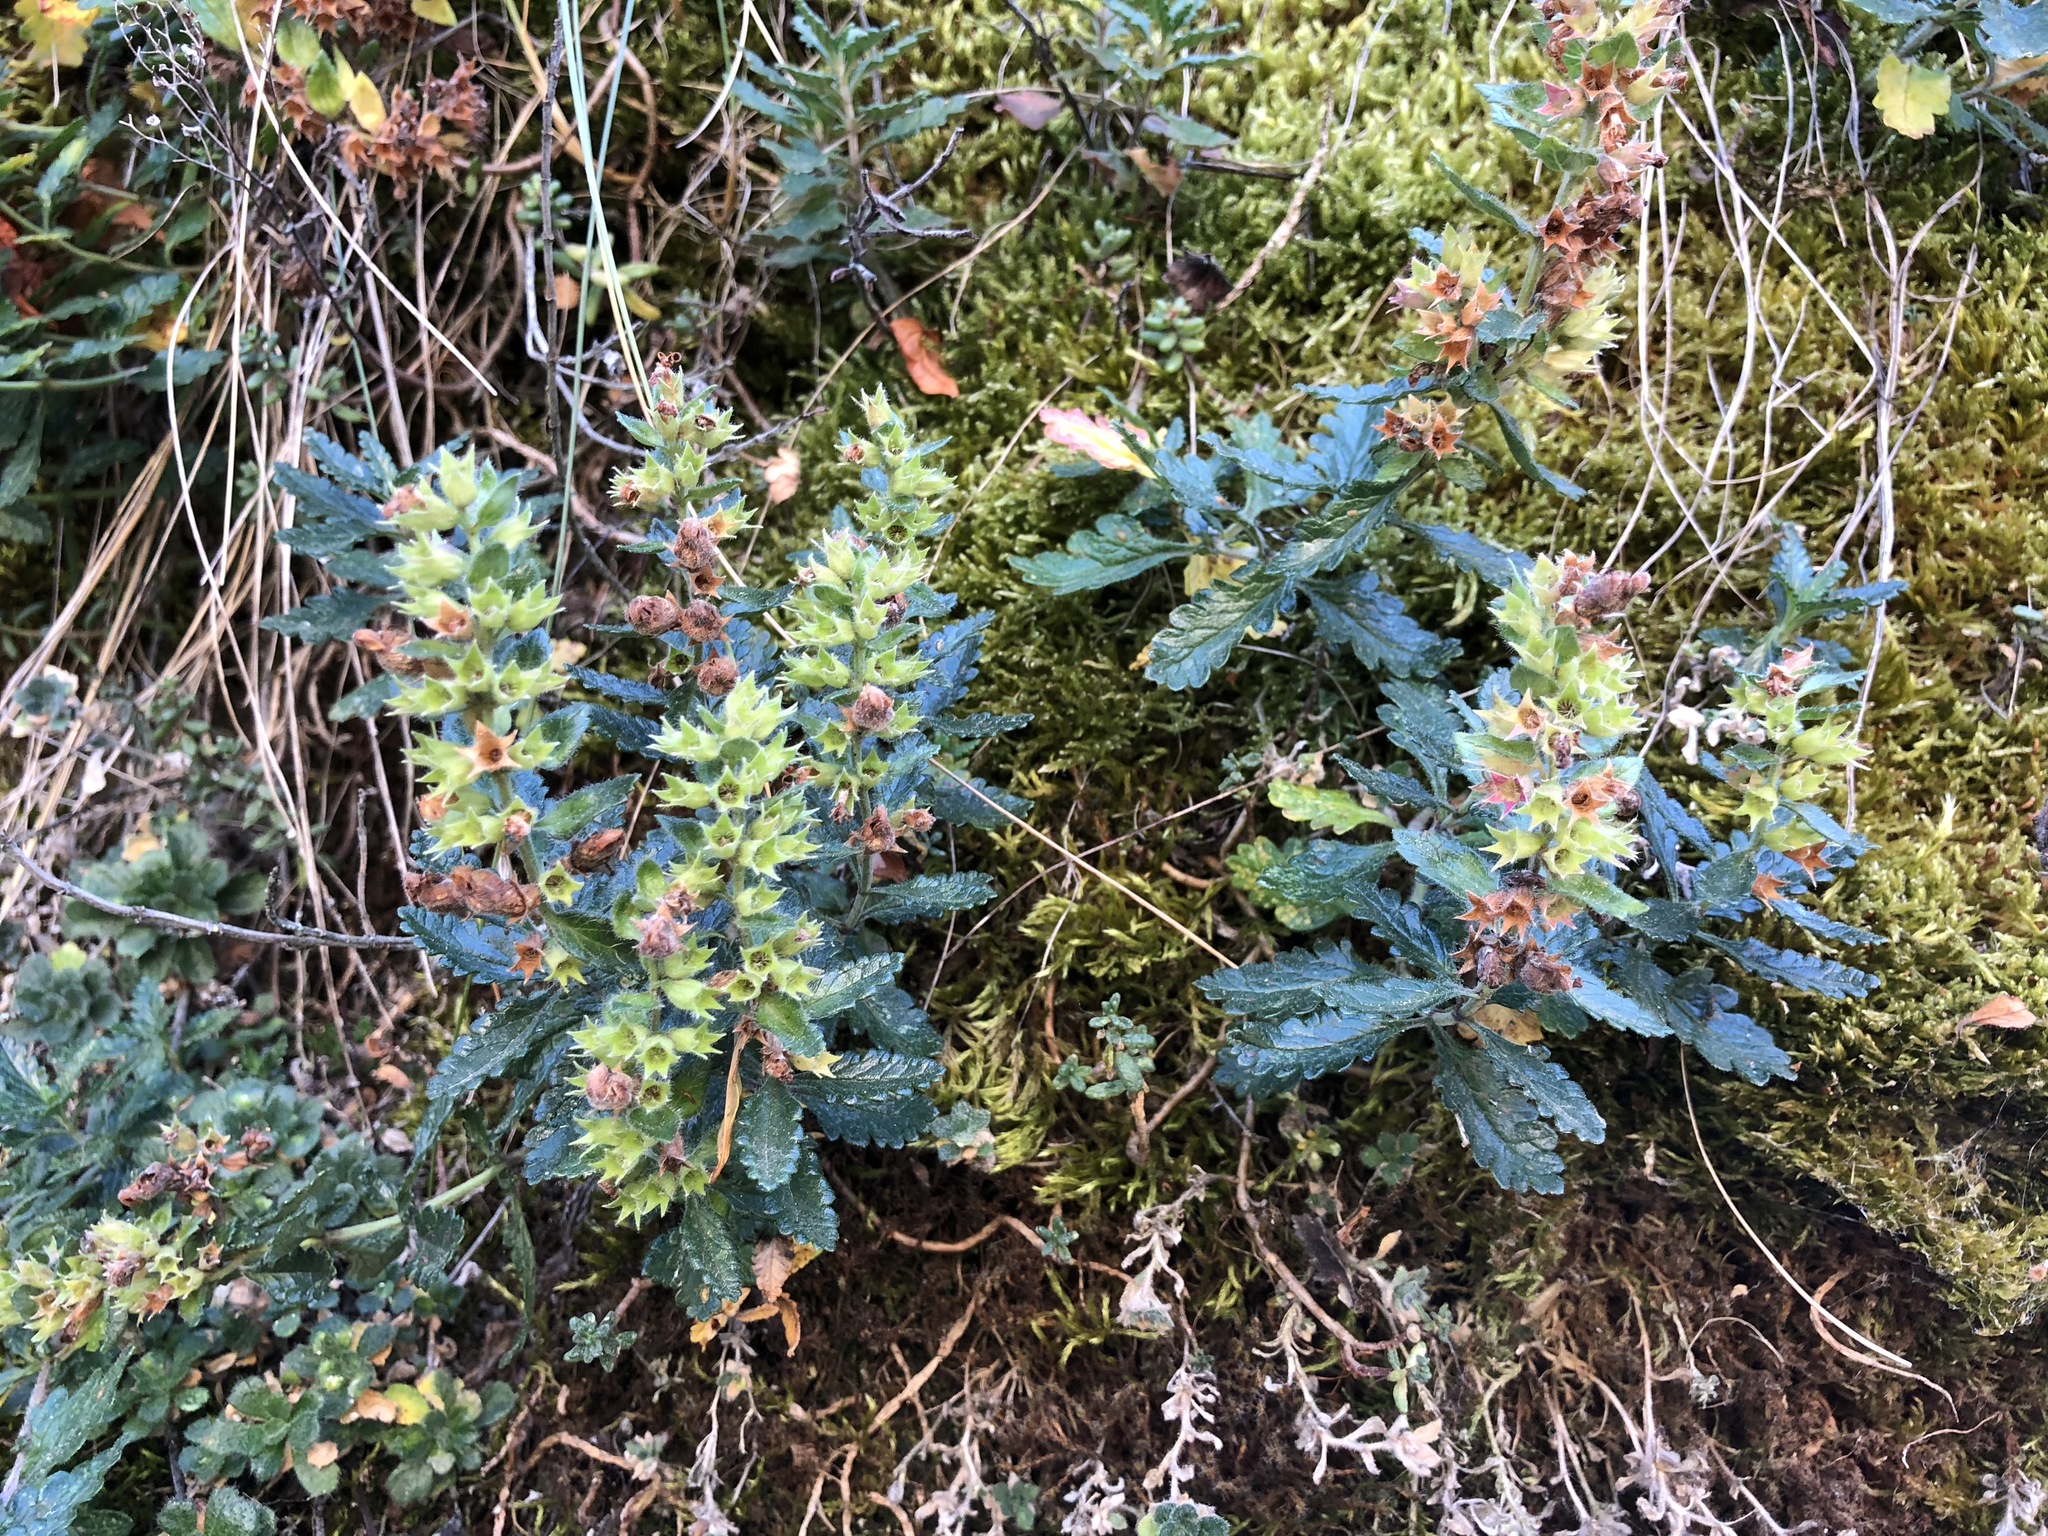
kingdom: Plantae
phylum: Tracheophyta
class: Magnoliopsida
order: Lamiales
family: Lamiaceae
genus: Teucrium
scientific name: Teucrium chamaedrys
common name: Wall germander
